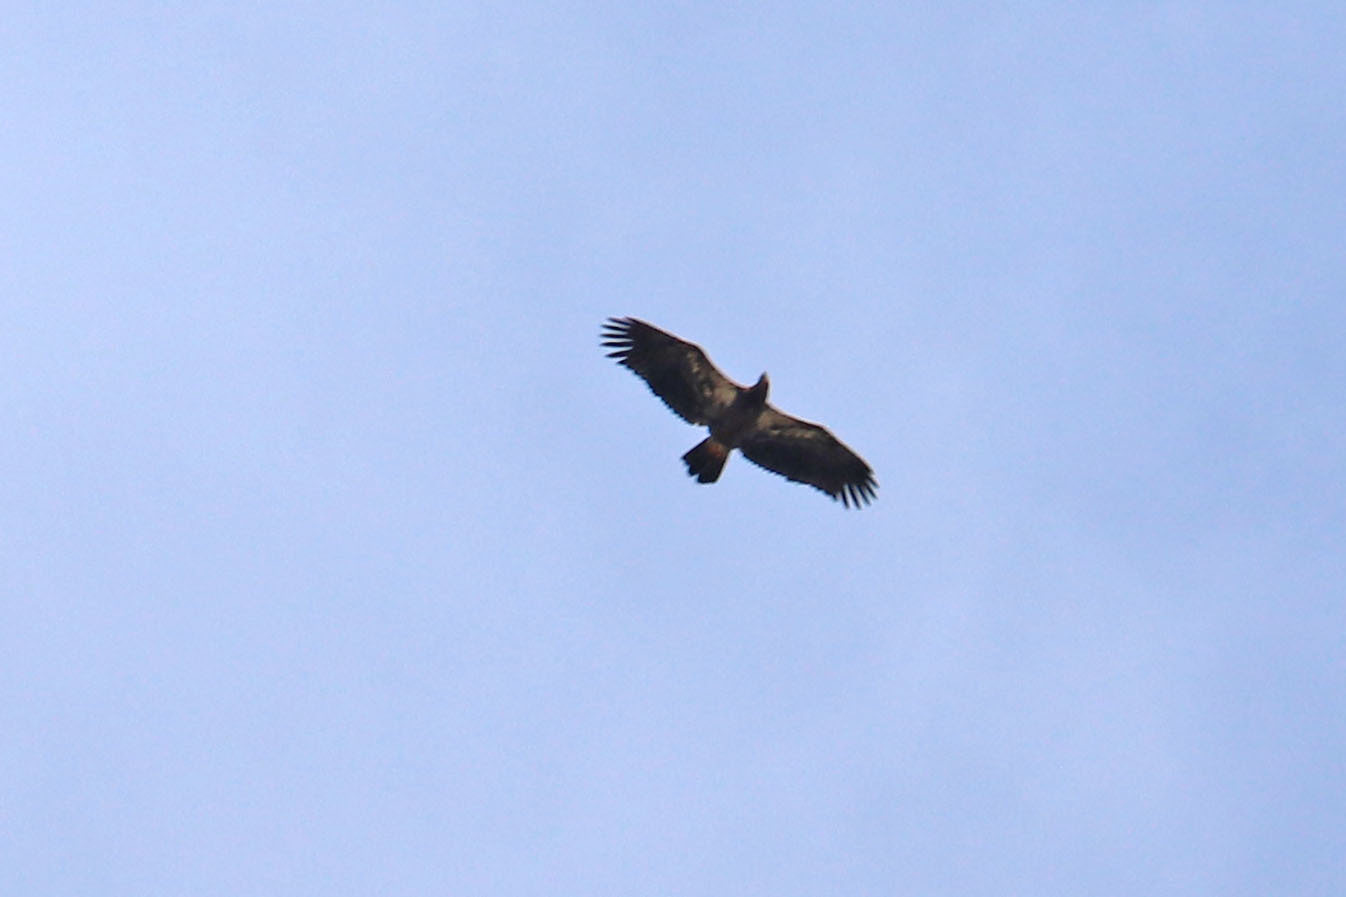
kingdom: Animalia
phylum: Chordata
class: Aves
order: Accipitriformes
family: Accipitridae
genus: Haliaeetus
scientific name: Haliaeetus leucocephalus
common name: Bald eagle
